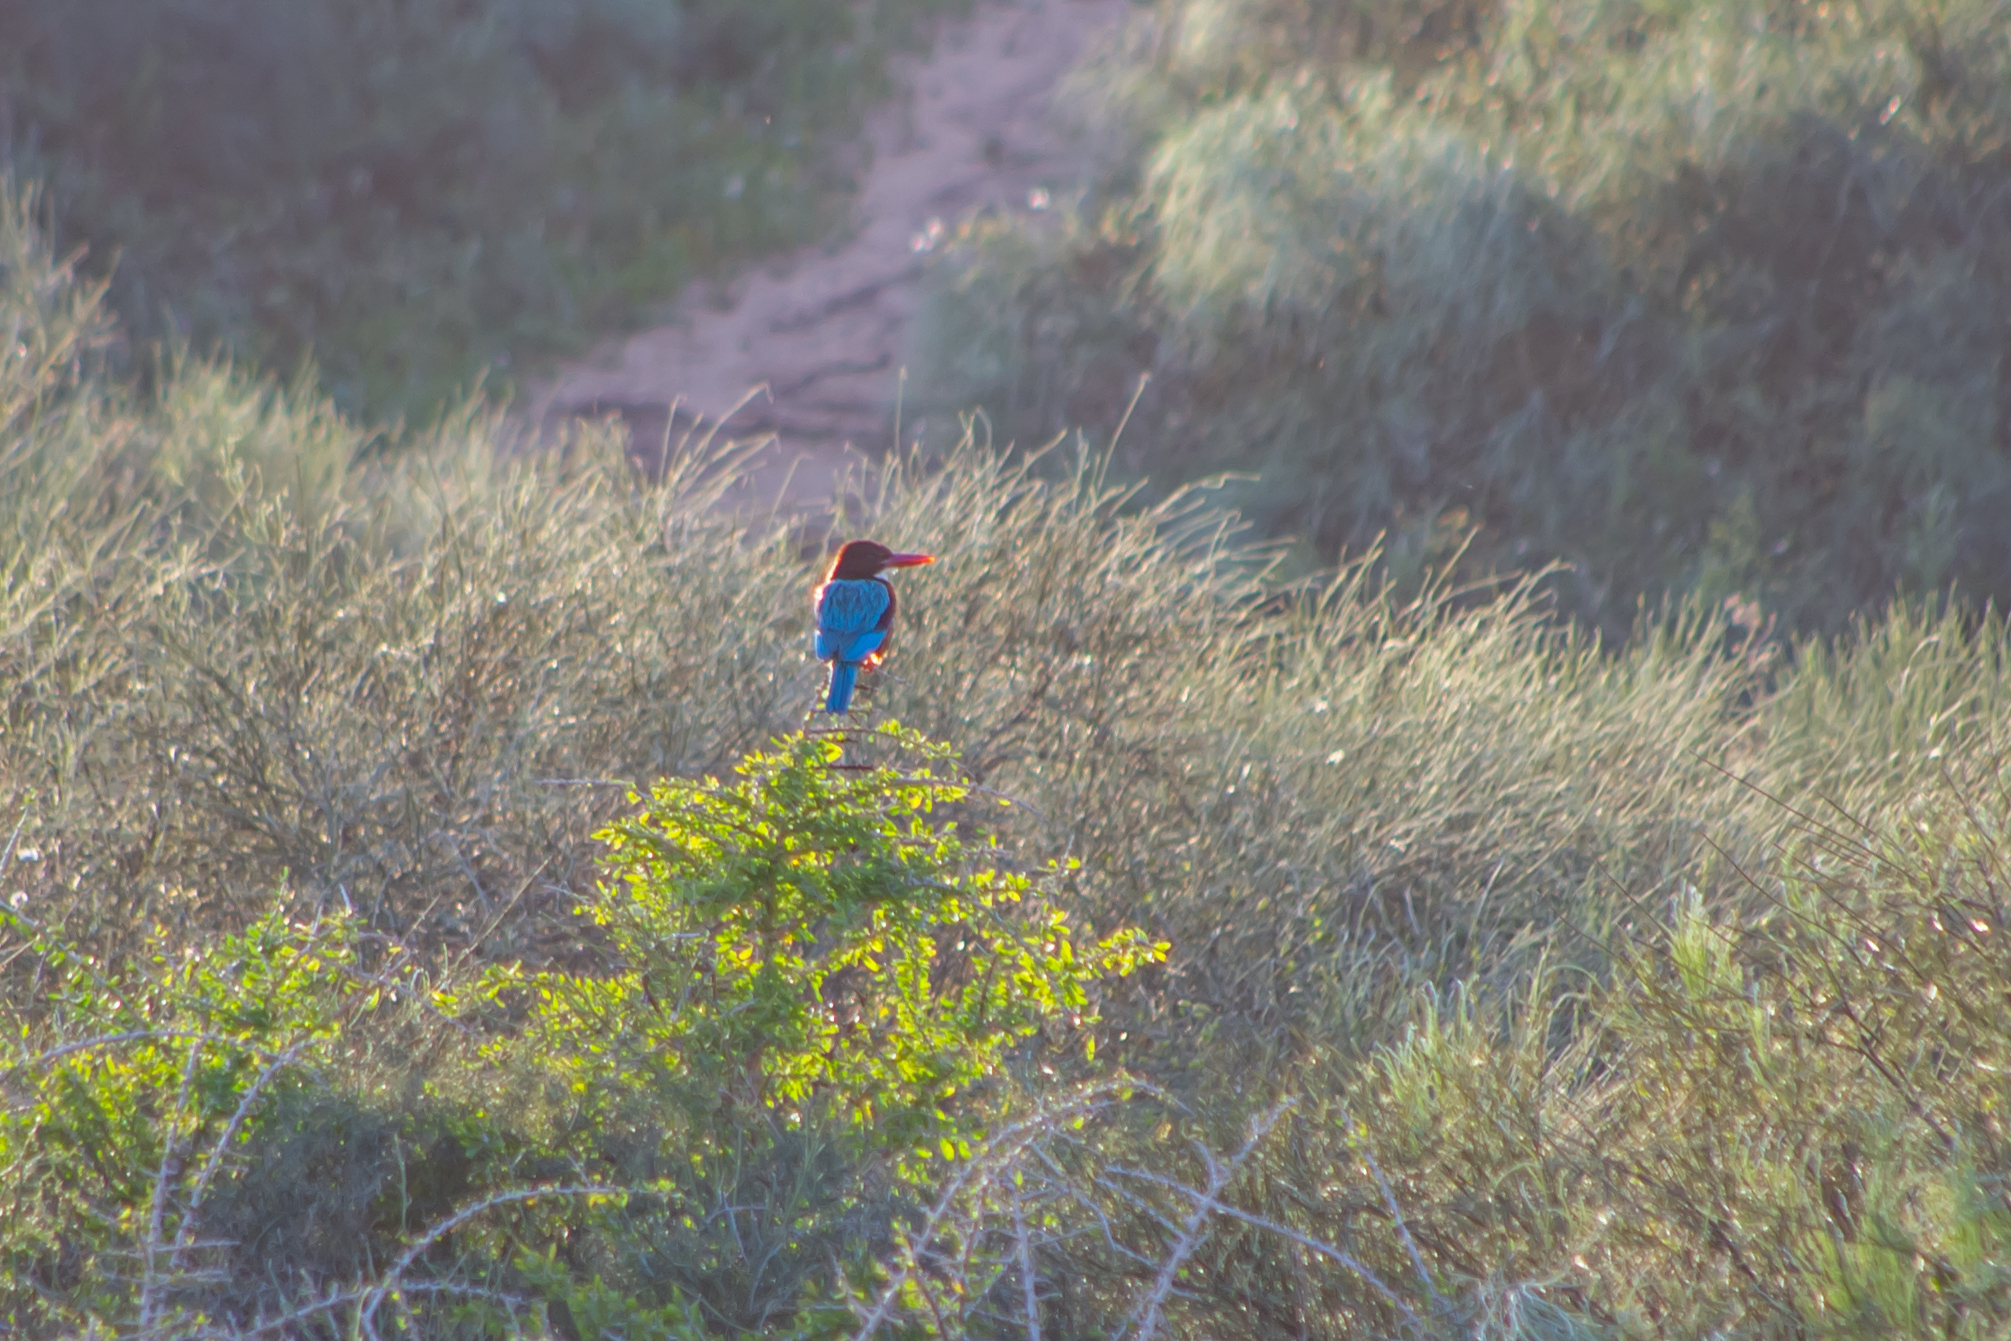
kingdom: Animalia
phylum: Chordata
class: Aves
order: Coraciiformes
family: Alcedinidae
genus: Halcyon
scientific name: Halcyon smyrnensis
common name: White-throated kingfisher
